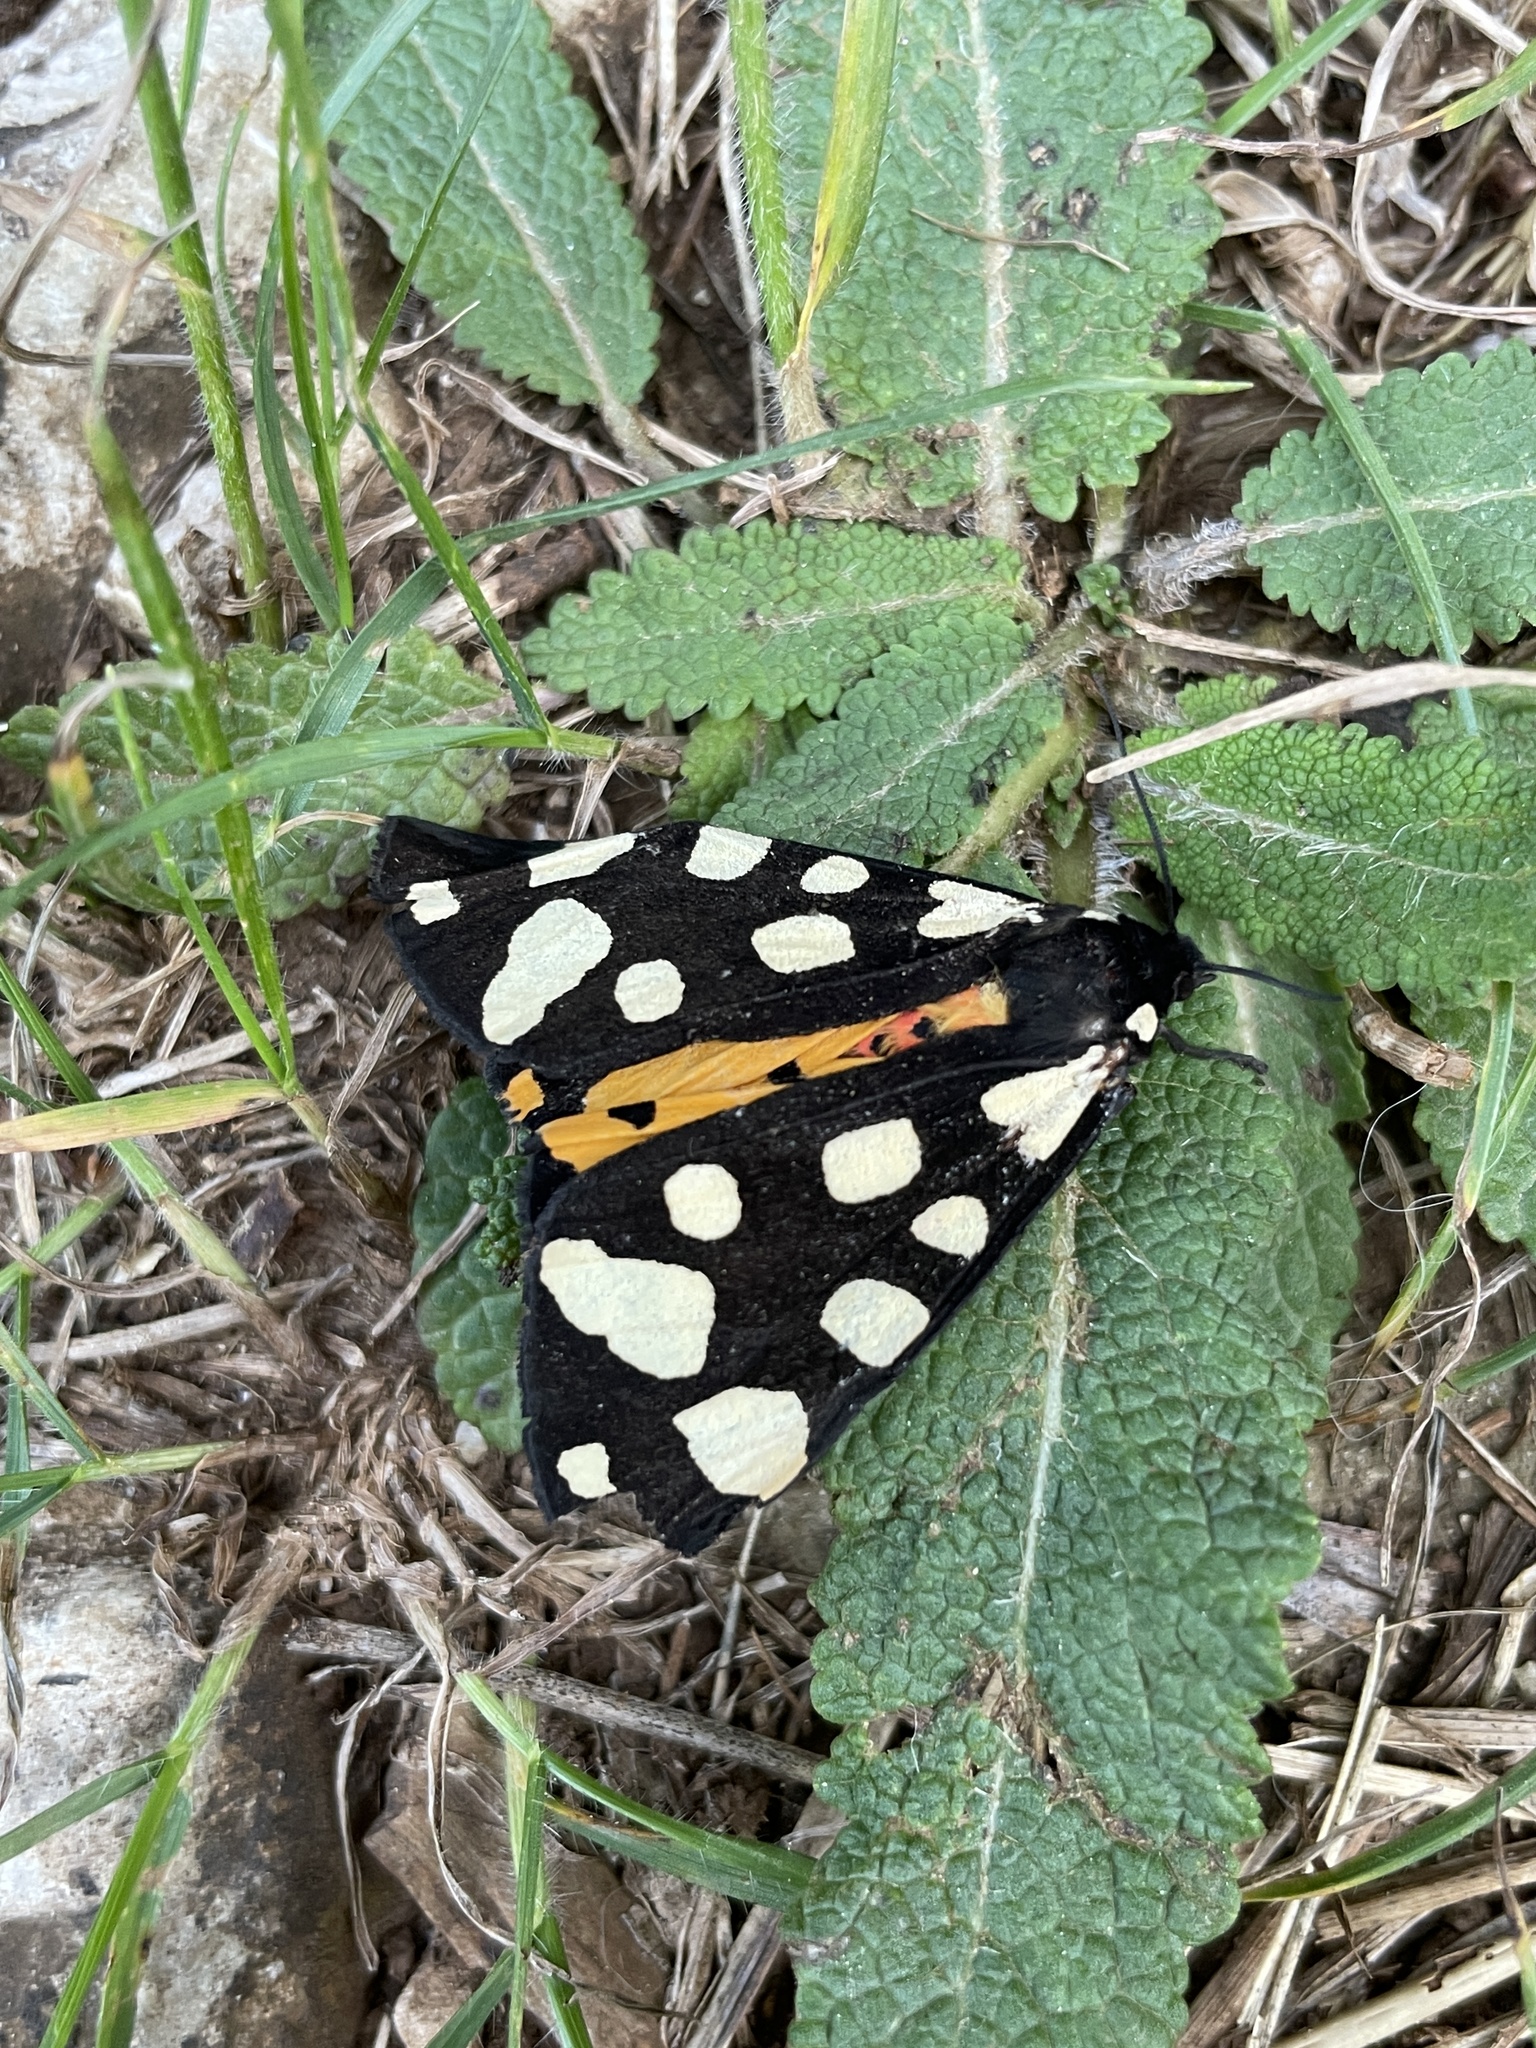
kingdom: Animalia
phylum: Arthropoda
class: Insecta
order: Lepidoptera
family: Erebidae
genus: Epicallia
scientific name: Epicallia villica
